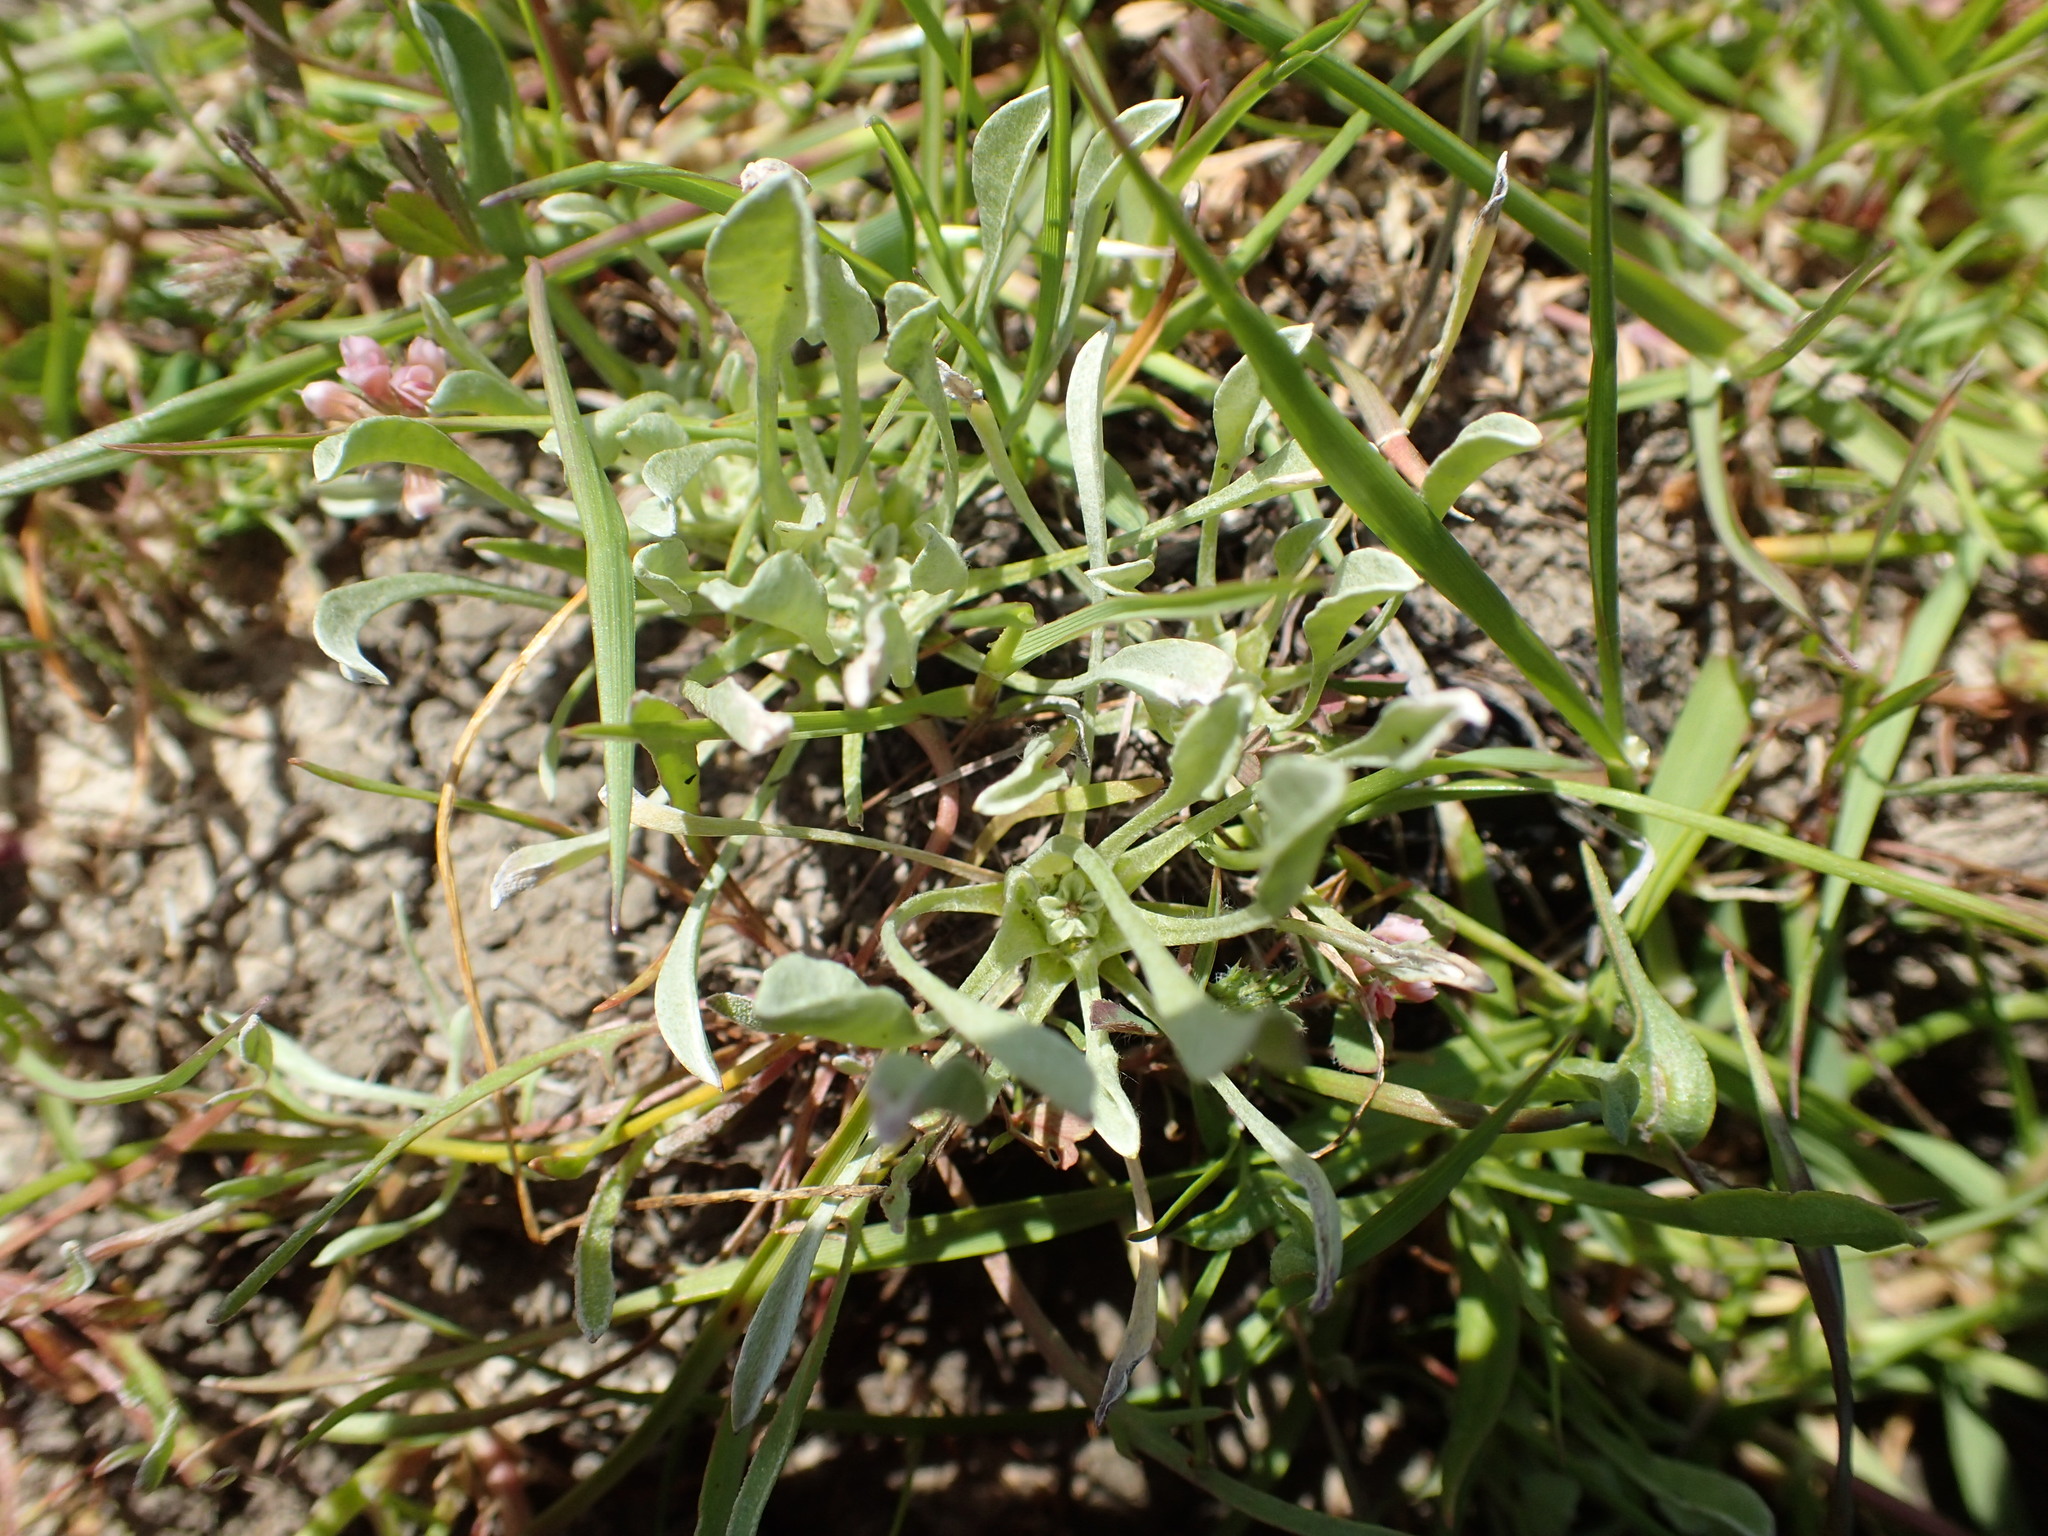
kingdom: Plantae
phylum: Tracheophyta
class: Magnoliopsida
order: Asterales
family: Asteraceae
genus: Hesperevax
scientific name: Hesperevax caulescens
